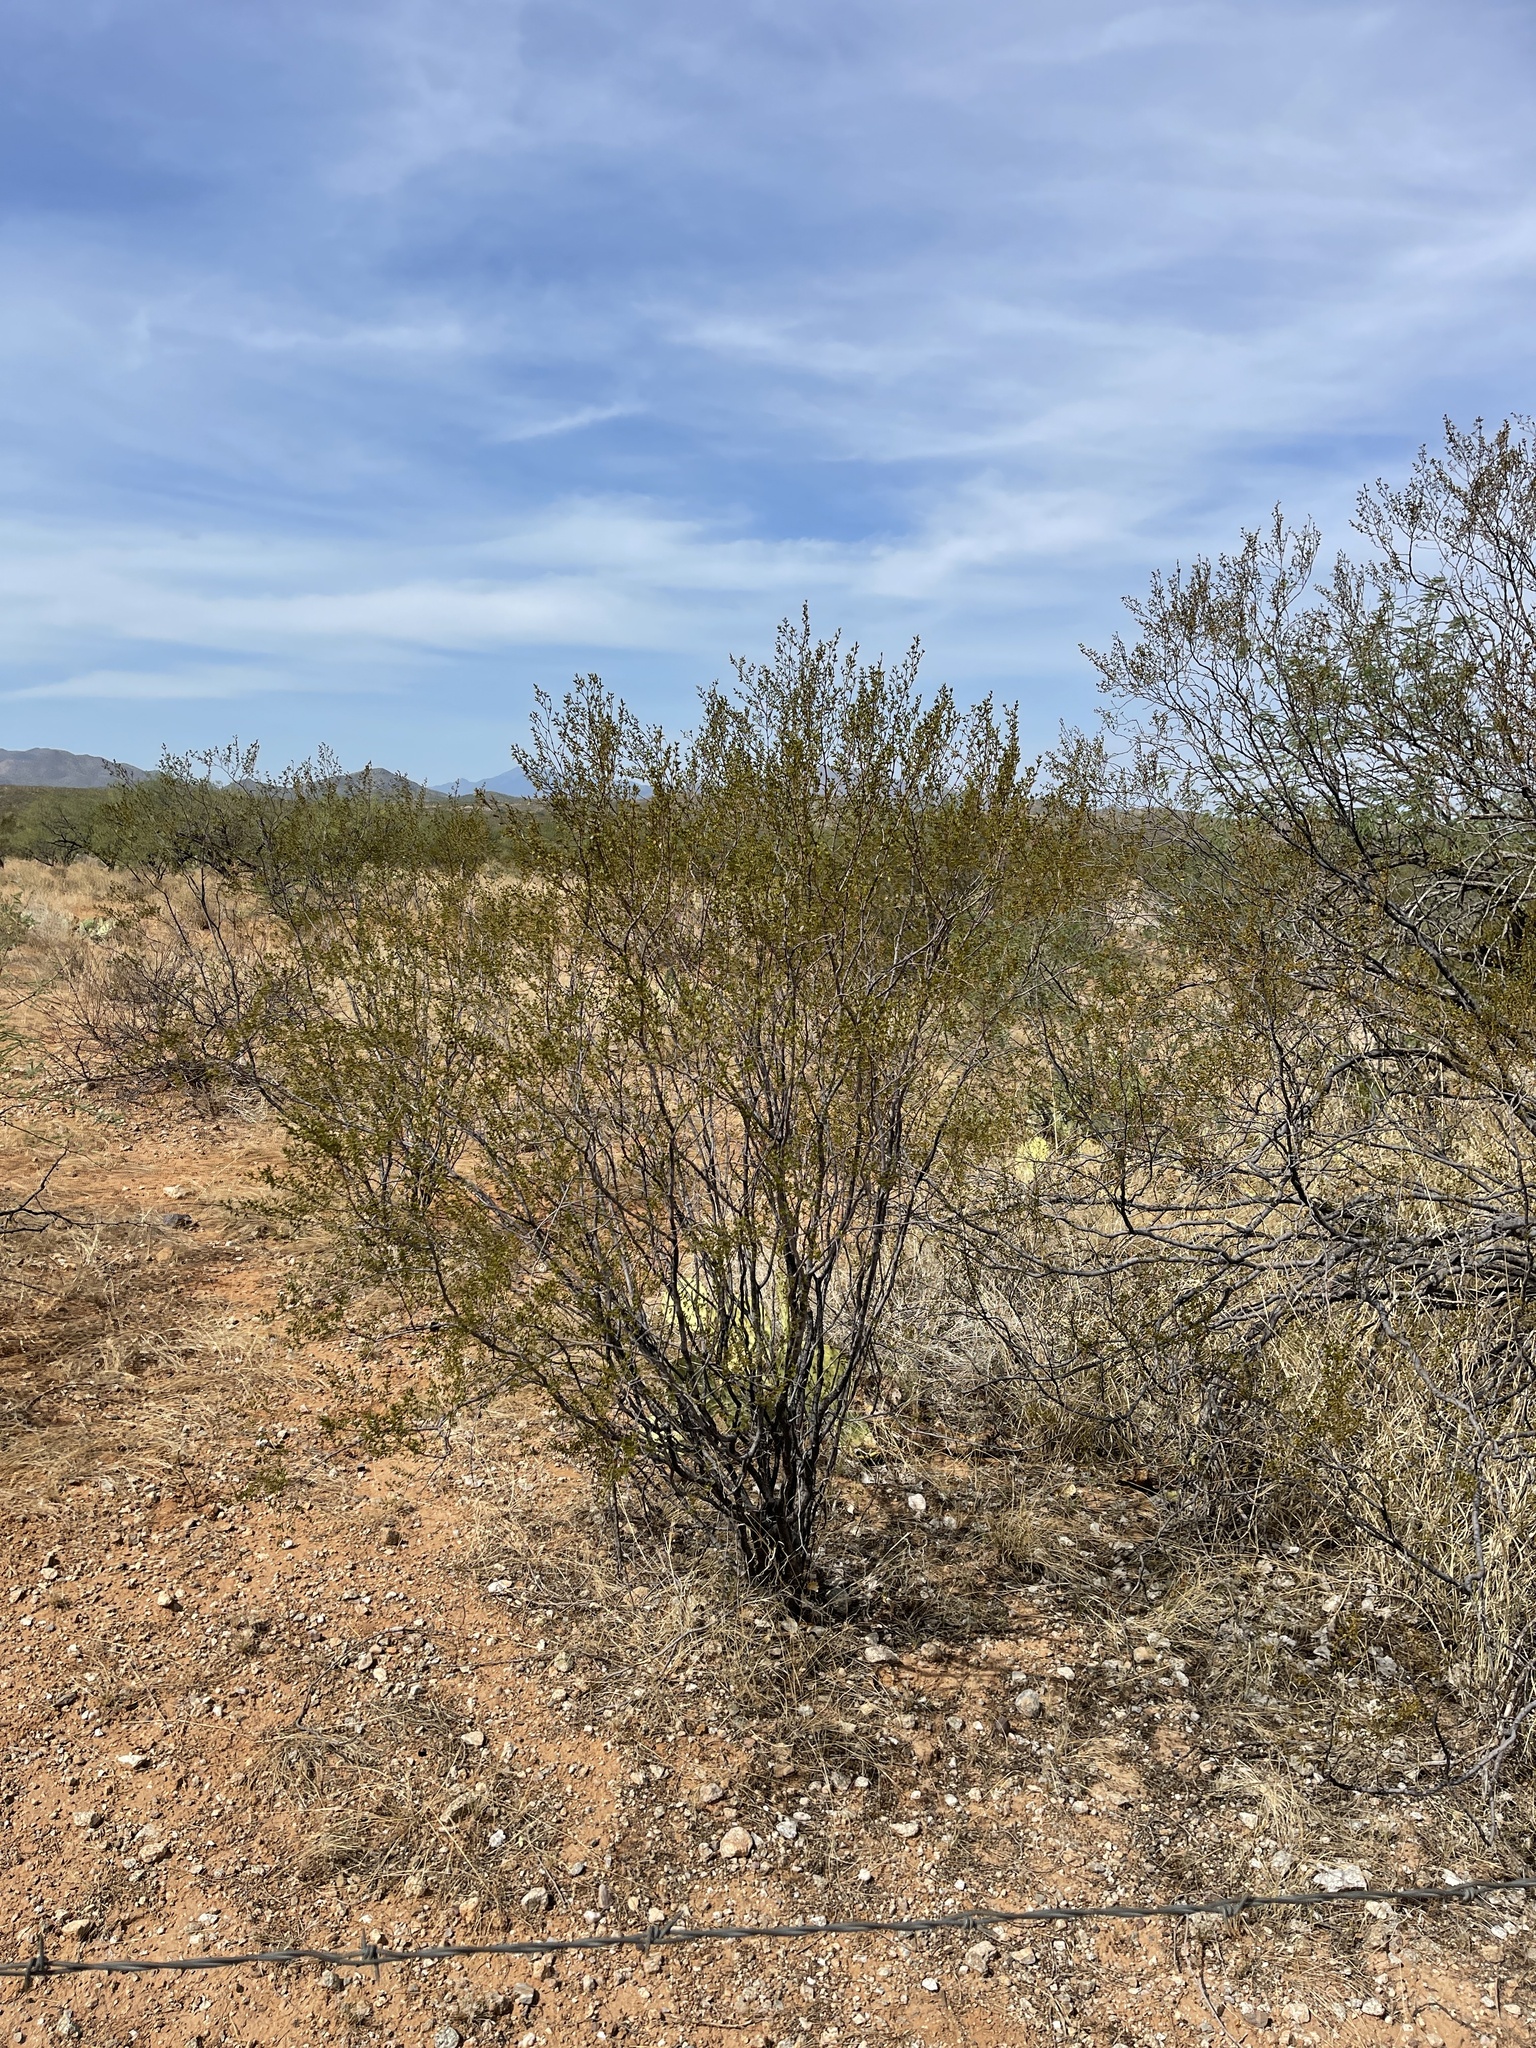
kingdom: Plantae
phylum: Tracheophyta
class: Magnoliopsida
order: Zygophyllales
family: Zygophyllaceae
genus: Larrea
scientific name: Larrea tridentata
